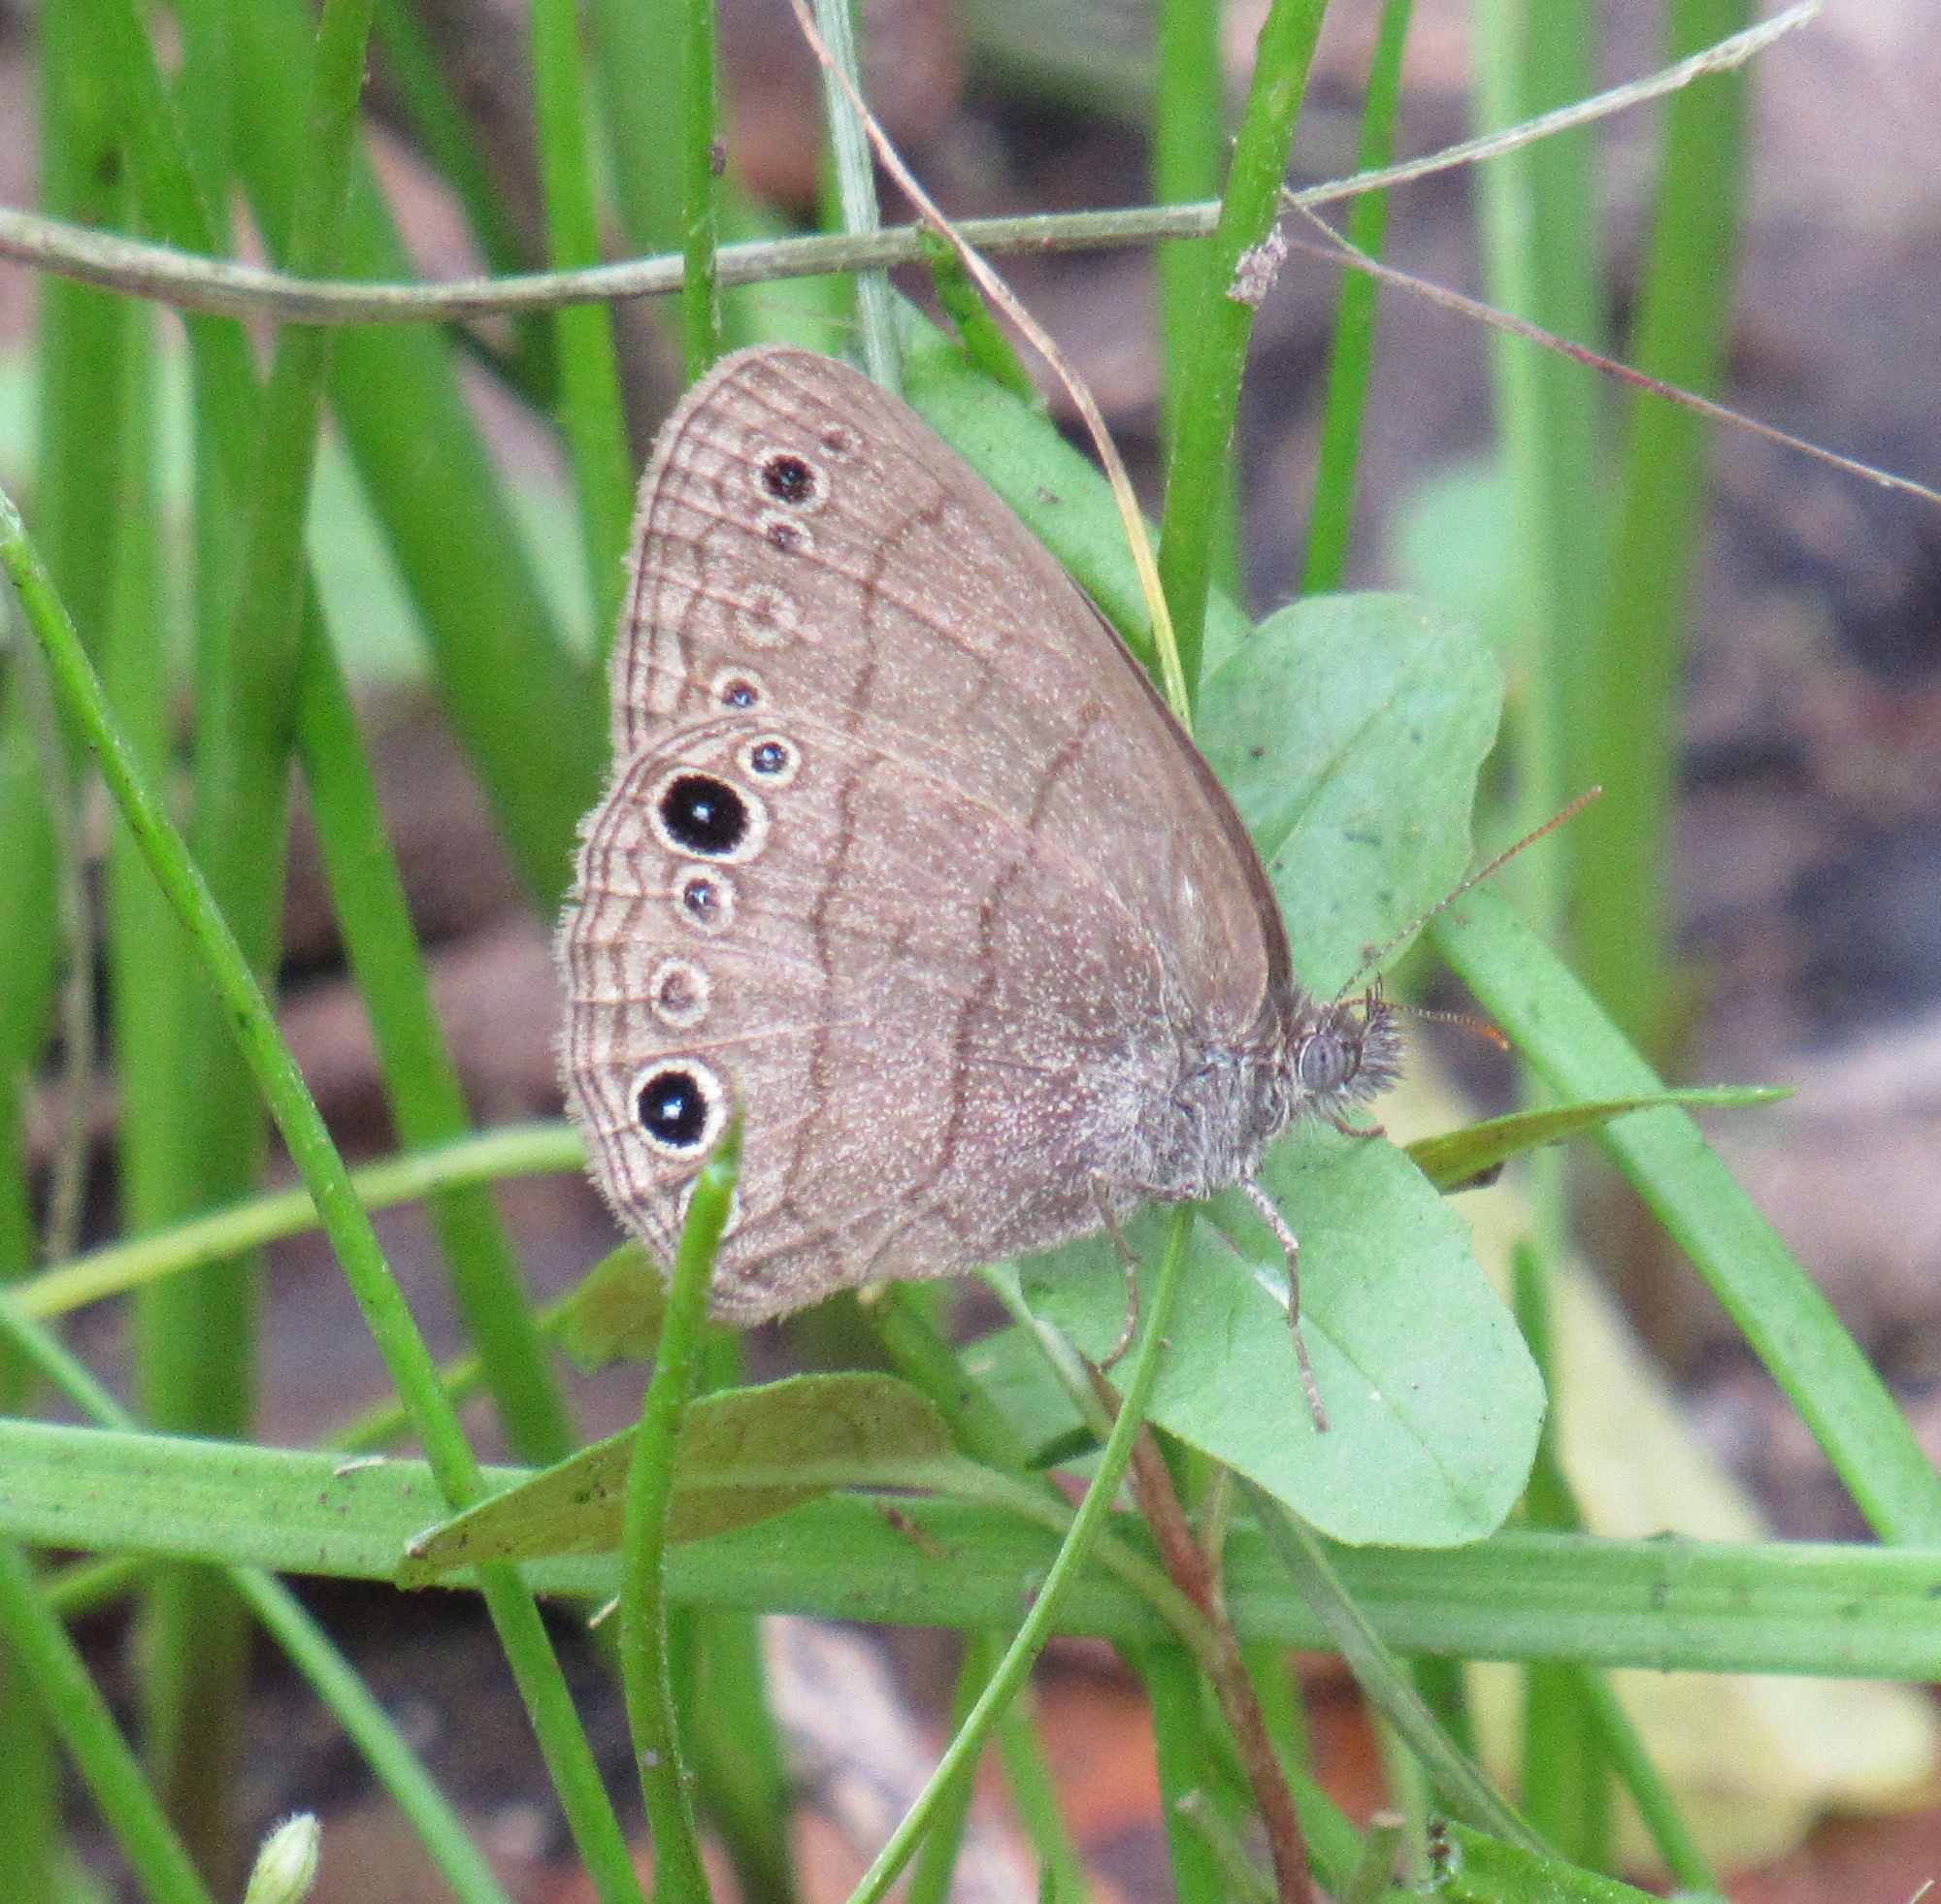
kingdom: Animalia
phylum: Arthropoda
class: Insecta
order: Lepidoptera
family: Nymphalidae
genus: Hermeuptychia
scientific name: Hermeuptychia hermes
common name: Hermes satyr
